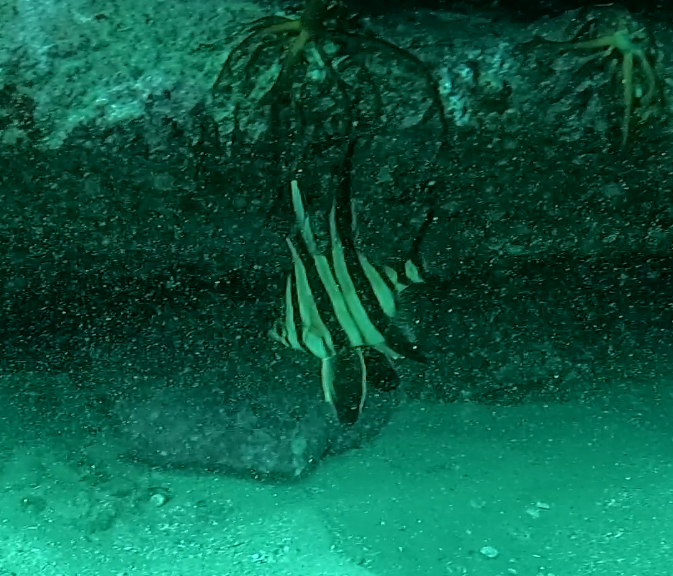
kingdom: Animalia
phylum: Chordata
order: Perciformes
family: Enoplosidae
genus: Enoplosus
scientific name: Enoplosus armatus
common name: Old wife
